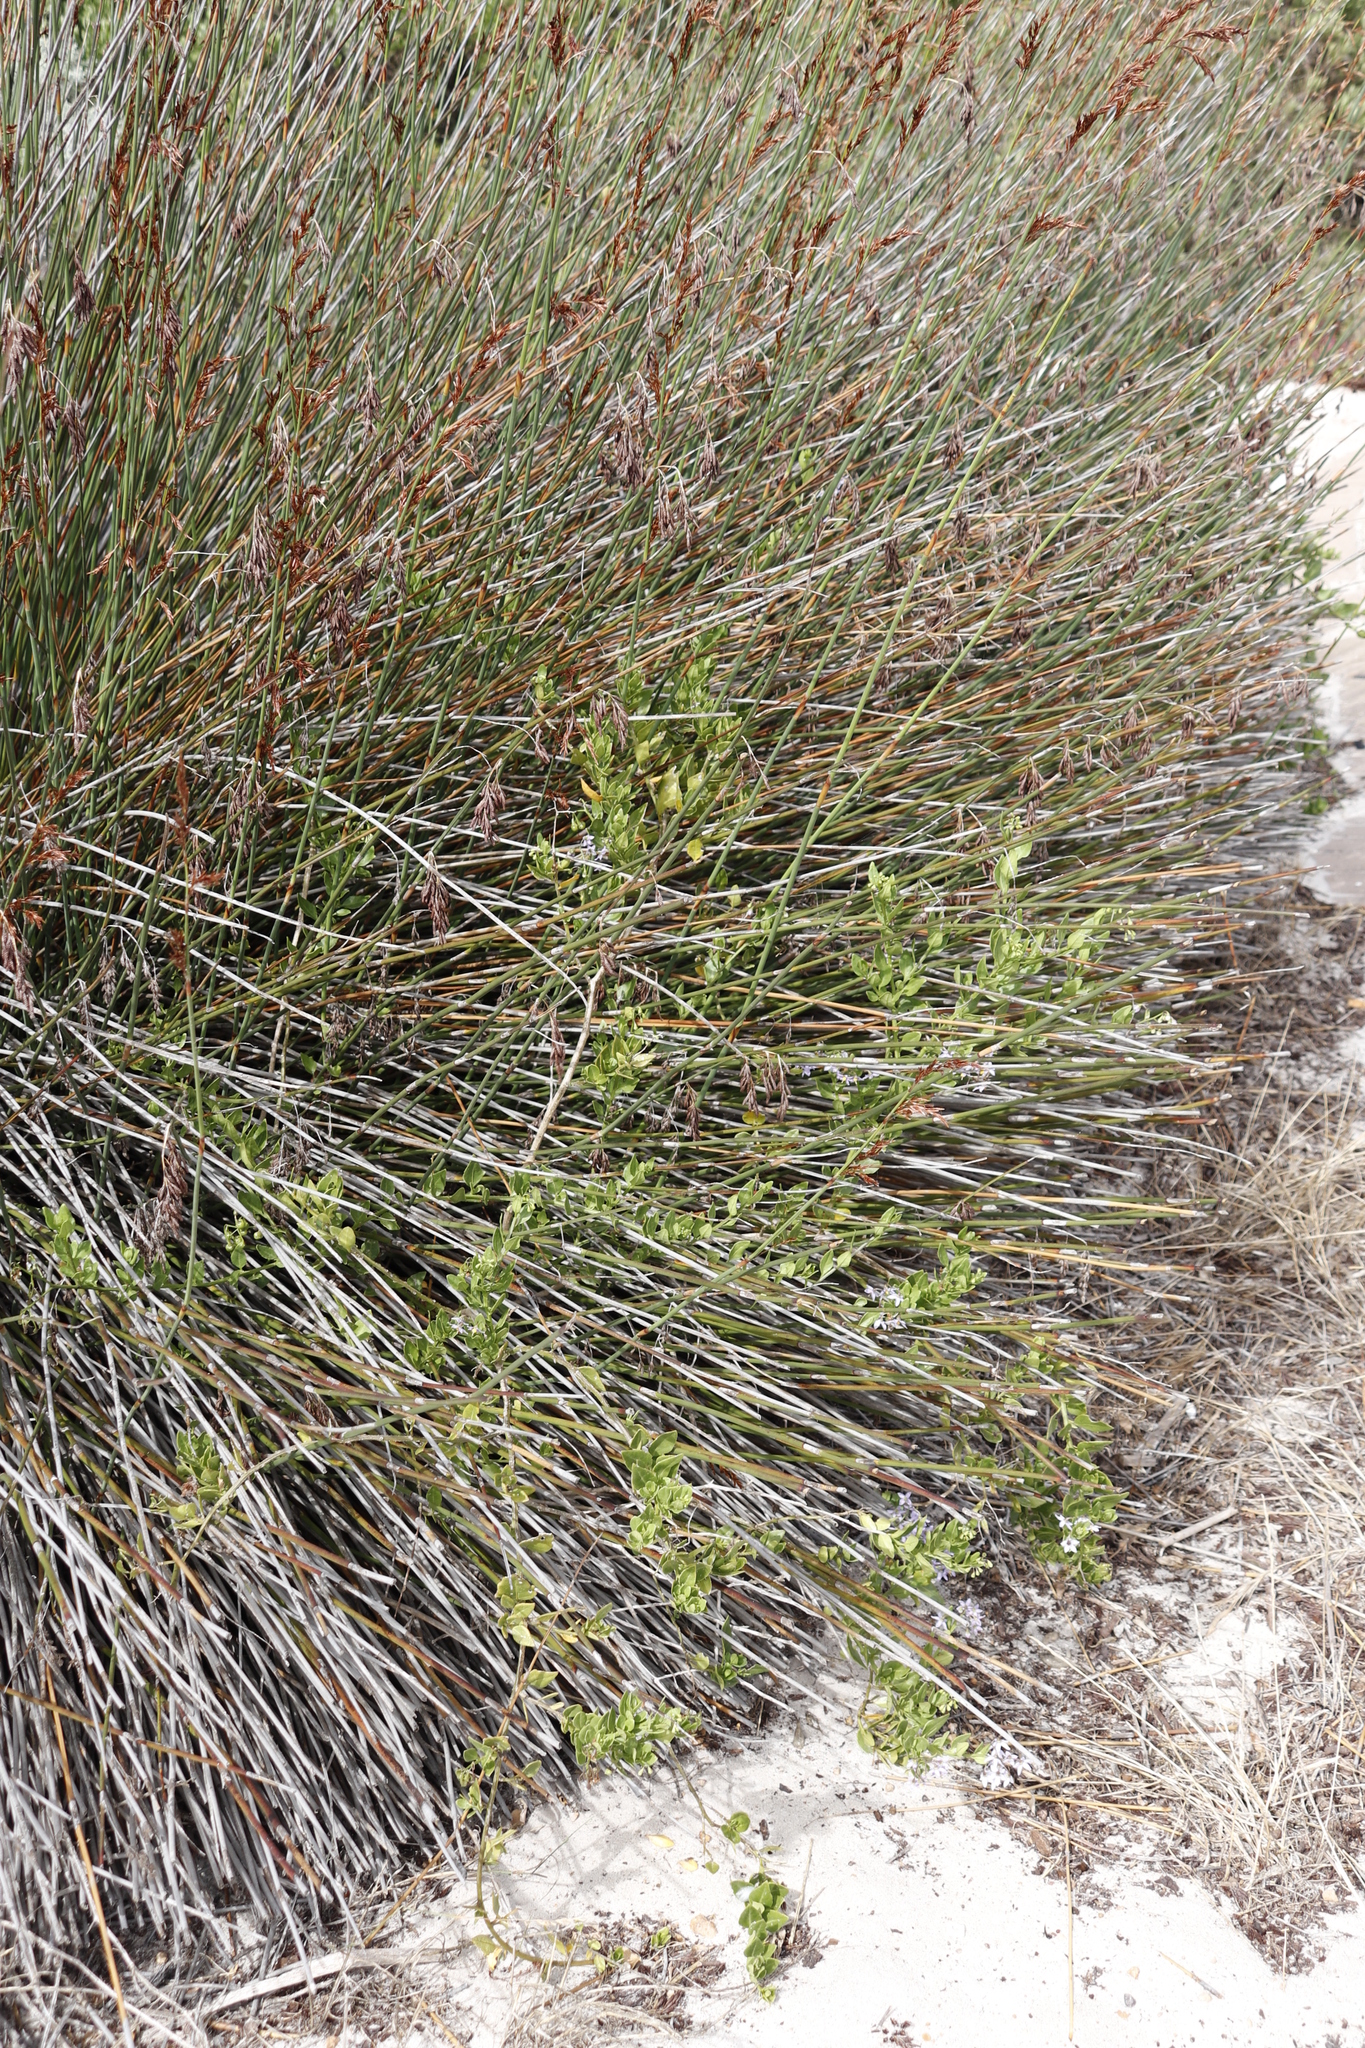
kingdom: Plantae
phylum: Tracheophyta
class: Magnoliopsida
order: Solanales
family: Solanaceae
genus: Solanum
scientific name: Solanum africanum
